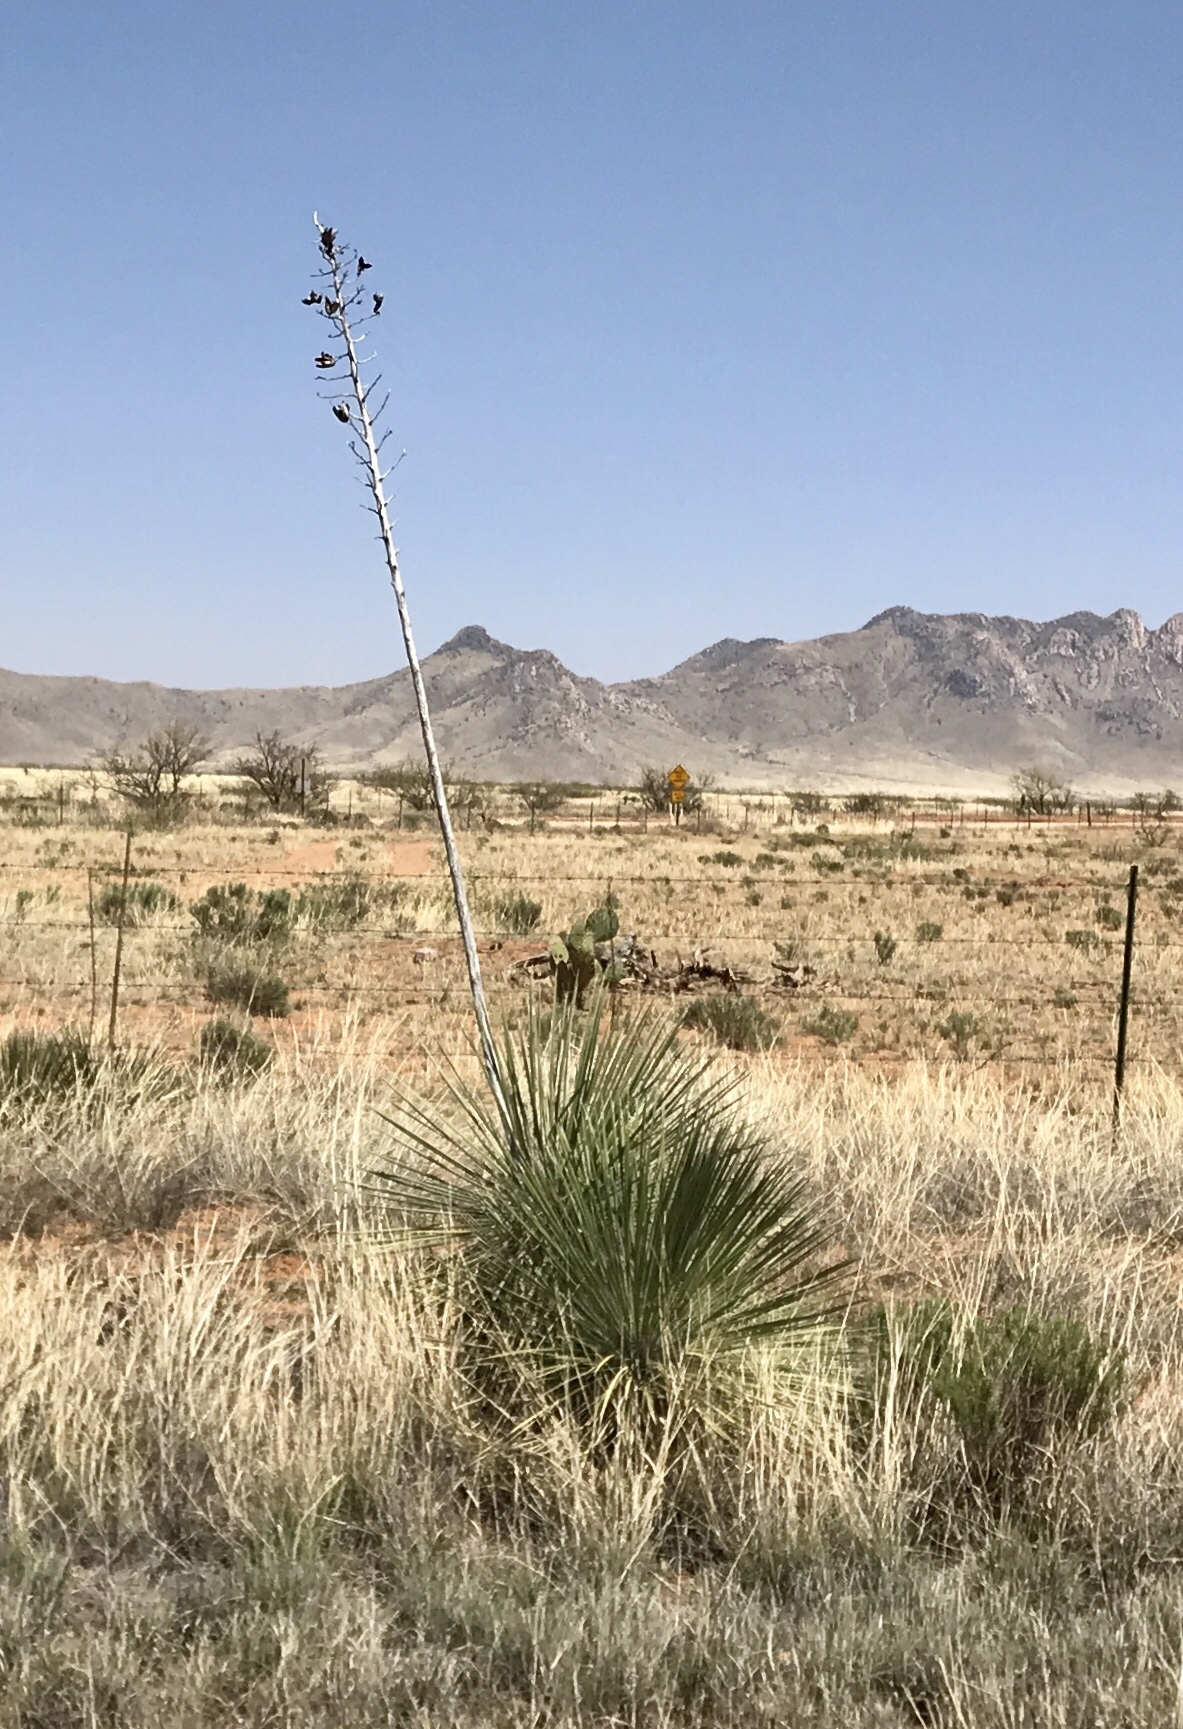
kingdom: Plantae
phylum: Tracheophyta
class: Liliopsida
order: Asparagales
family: Asparagaceae
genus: Yucca
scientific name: Yucca elata
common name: Palmella
